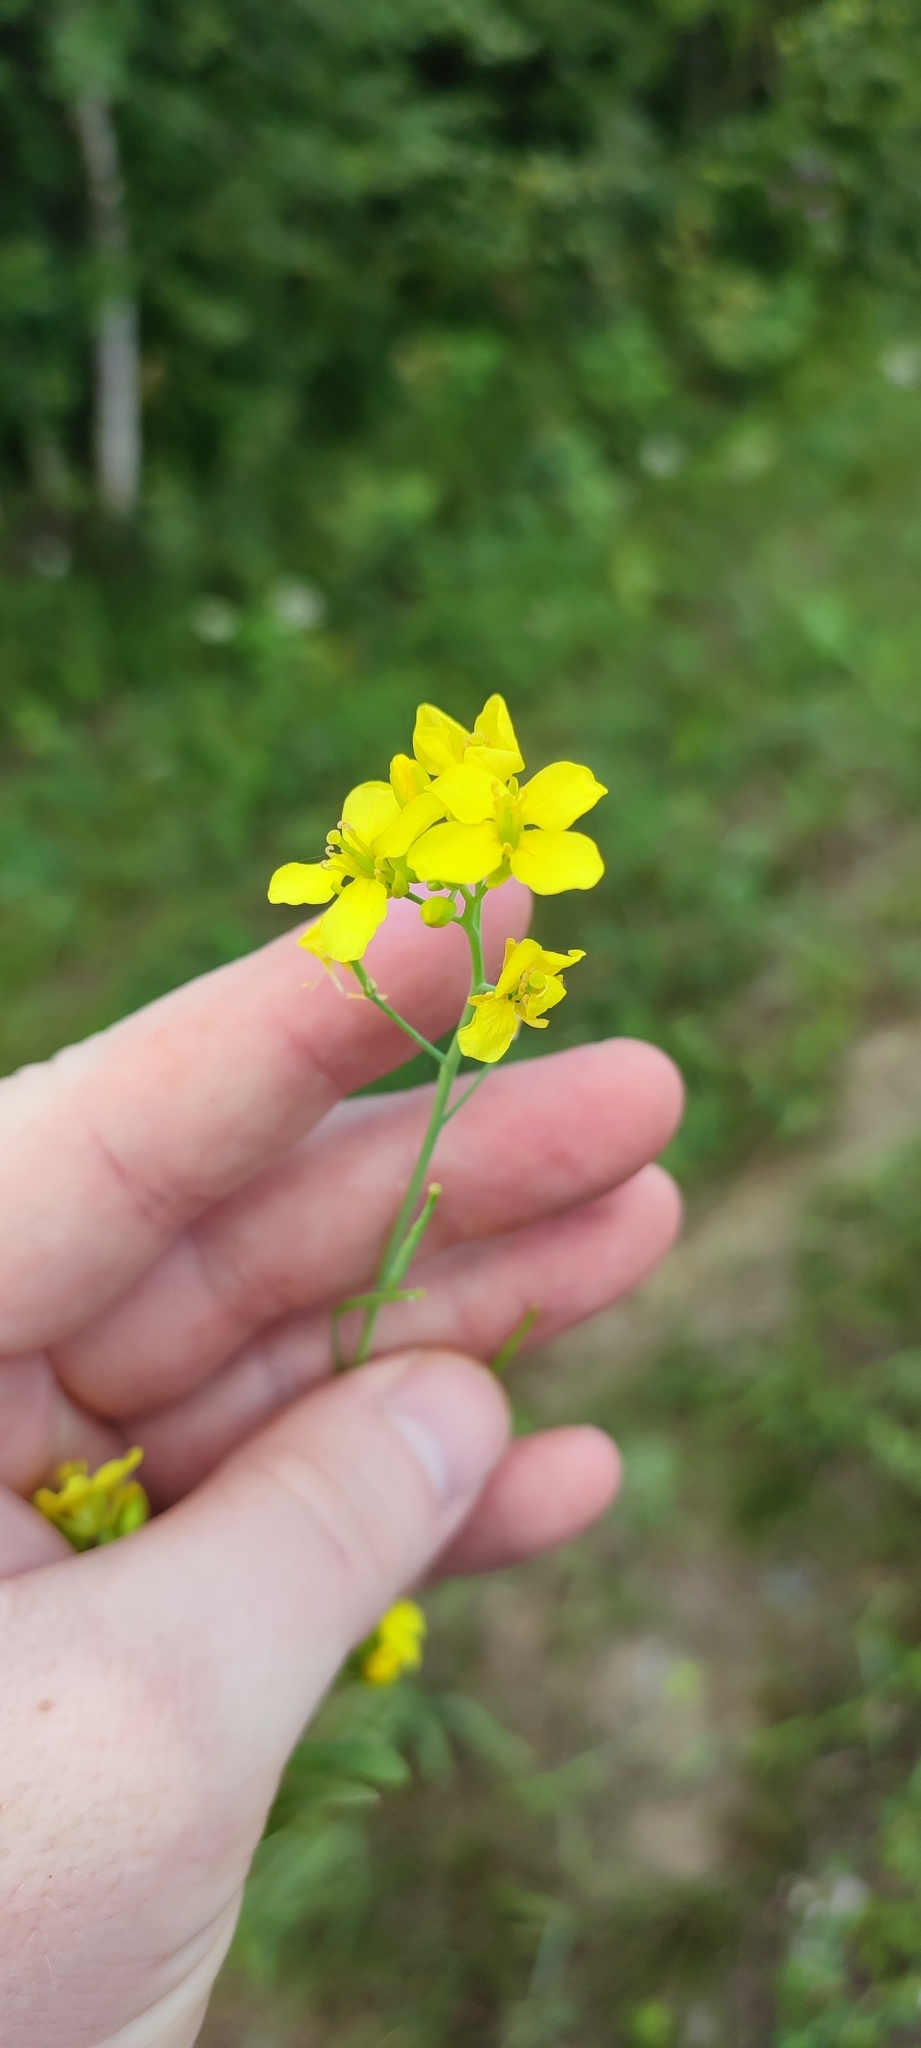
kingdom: Plantae
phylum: Tracheophyta
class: Magnoliopsida
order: Brassicales
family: Brassicaceae
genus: Brassica
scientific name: Brassica napus
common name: Rape
